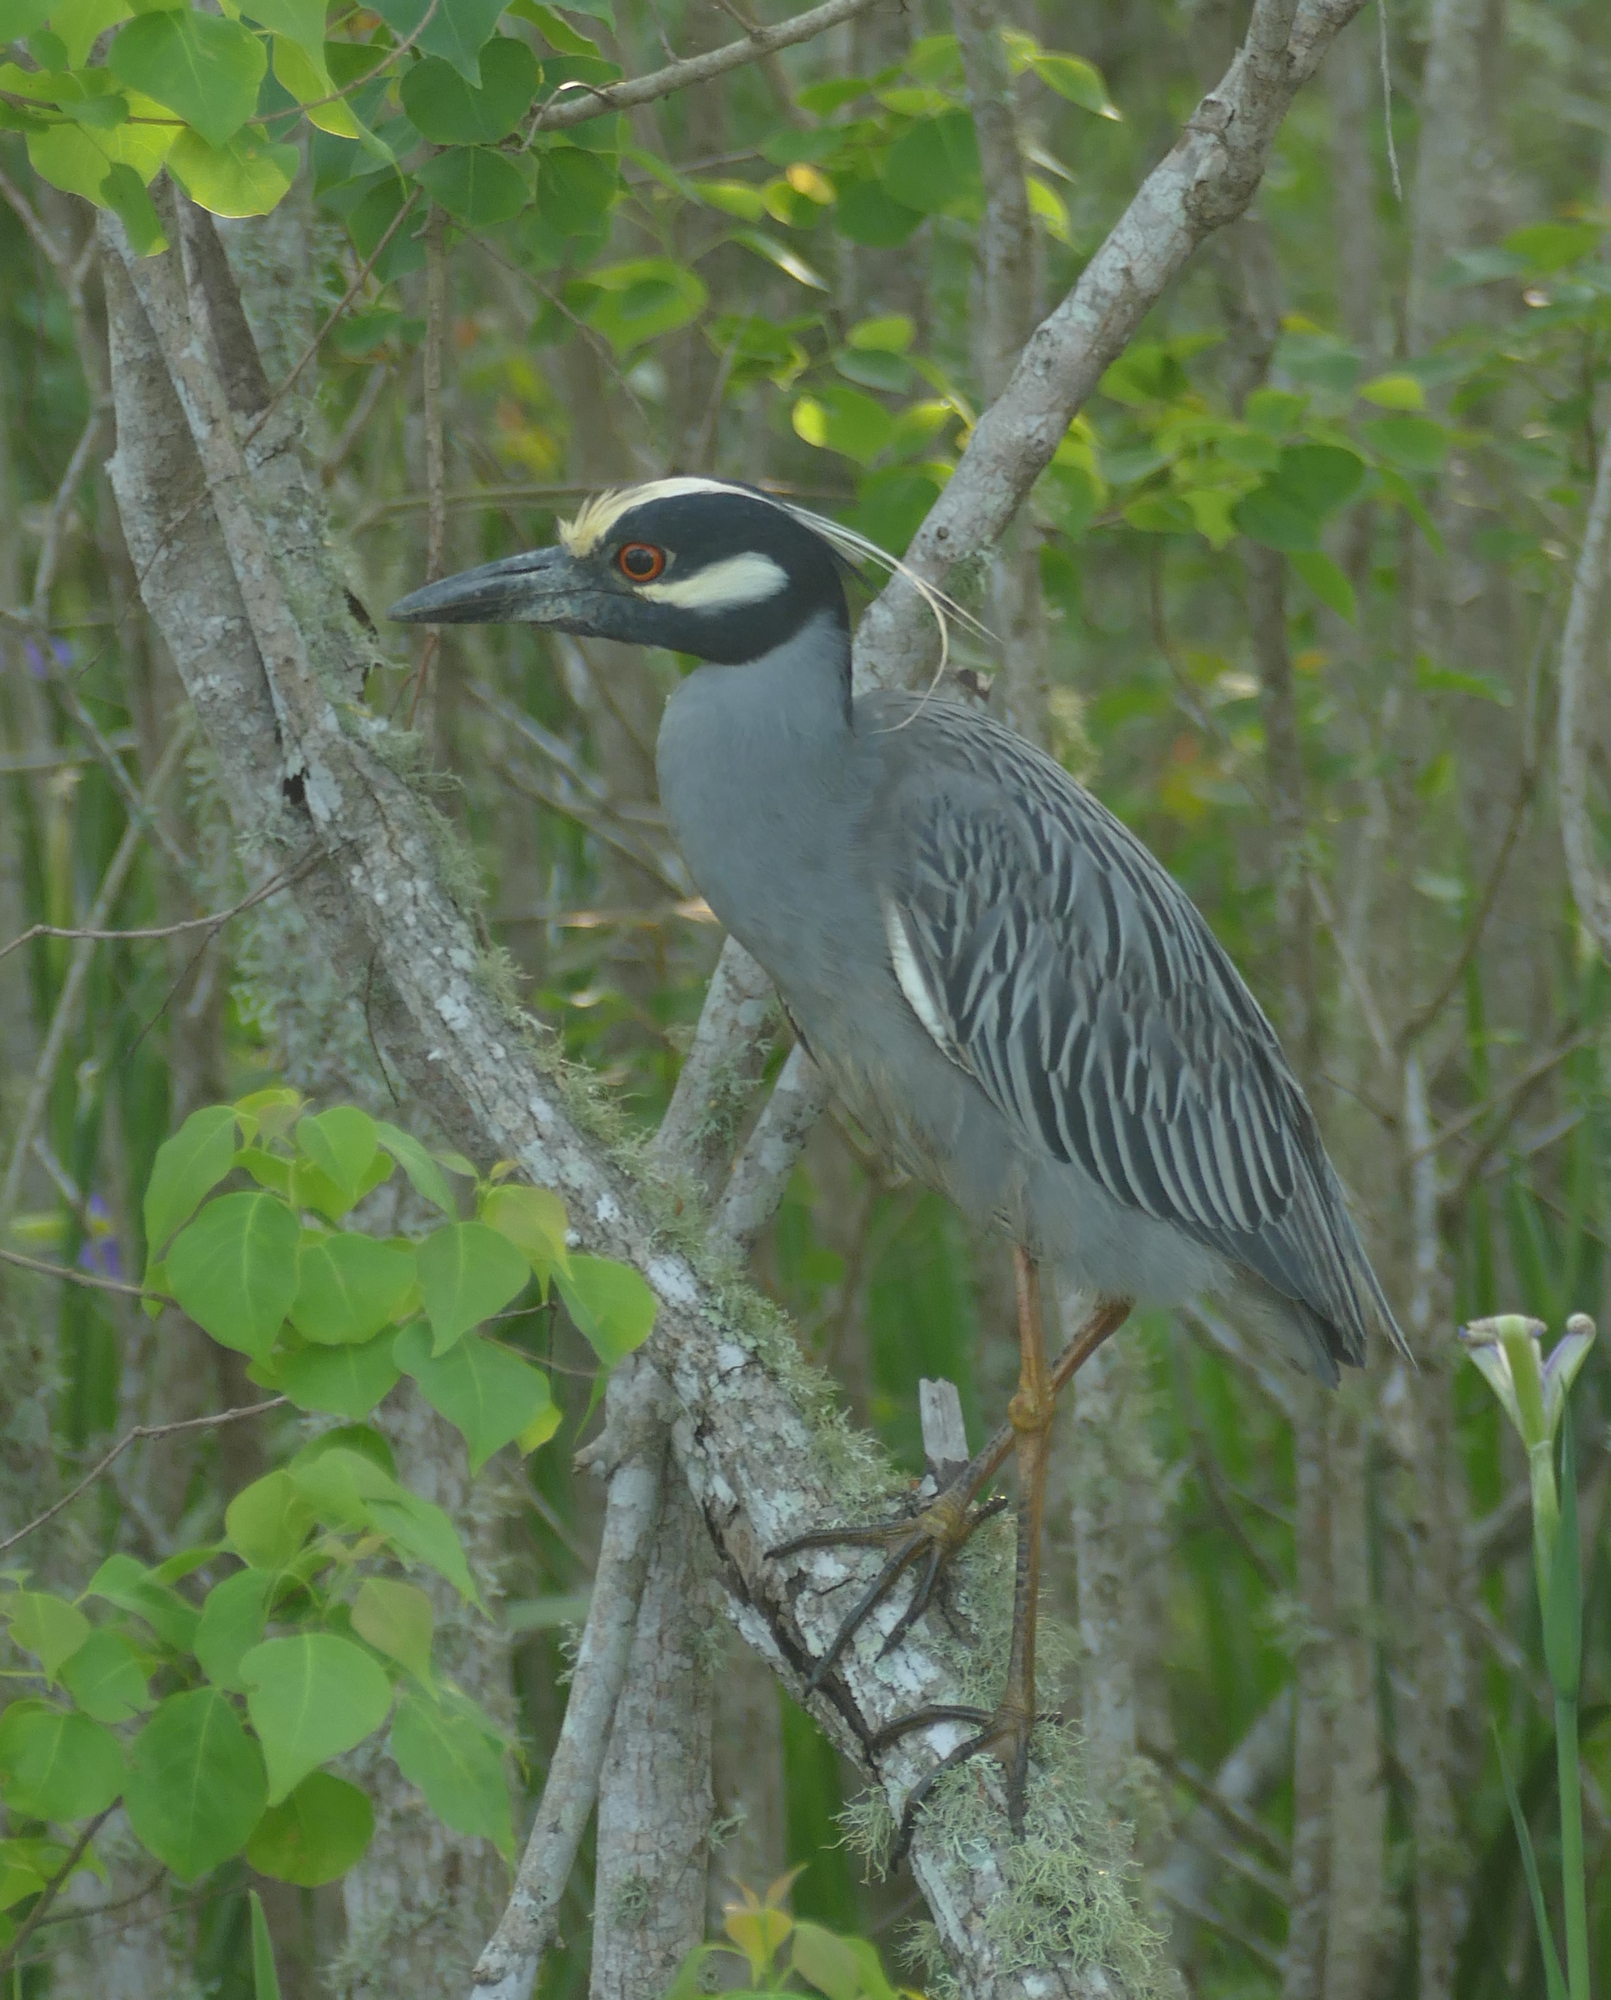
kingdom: Animalia
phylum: Chordata
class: Aves
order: Pelecaniformes
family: Ardeidae
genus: Nyctanassa
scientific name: Nyctanassa violacea
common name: Yellow-crowned night heron
